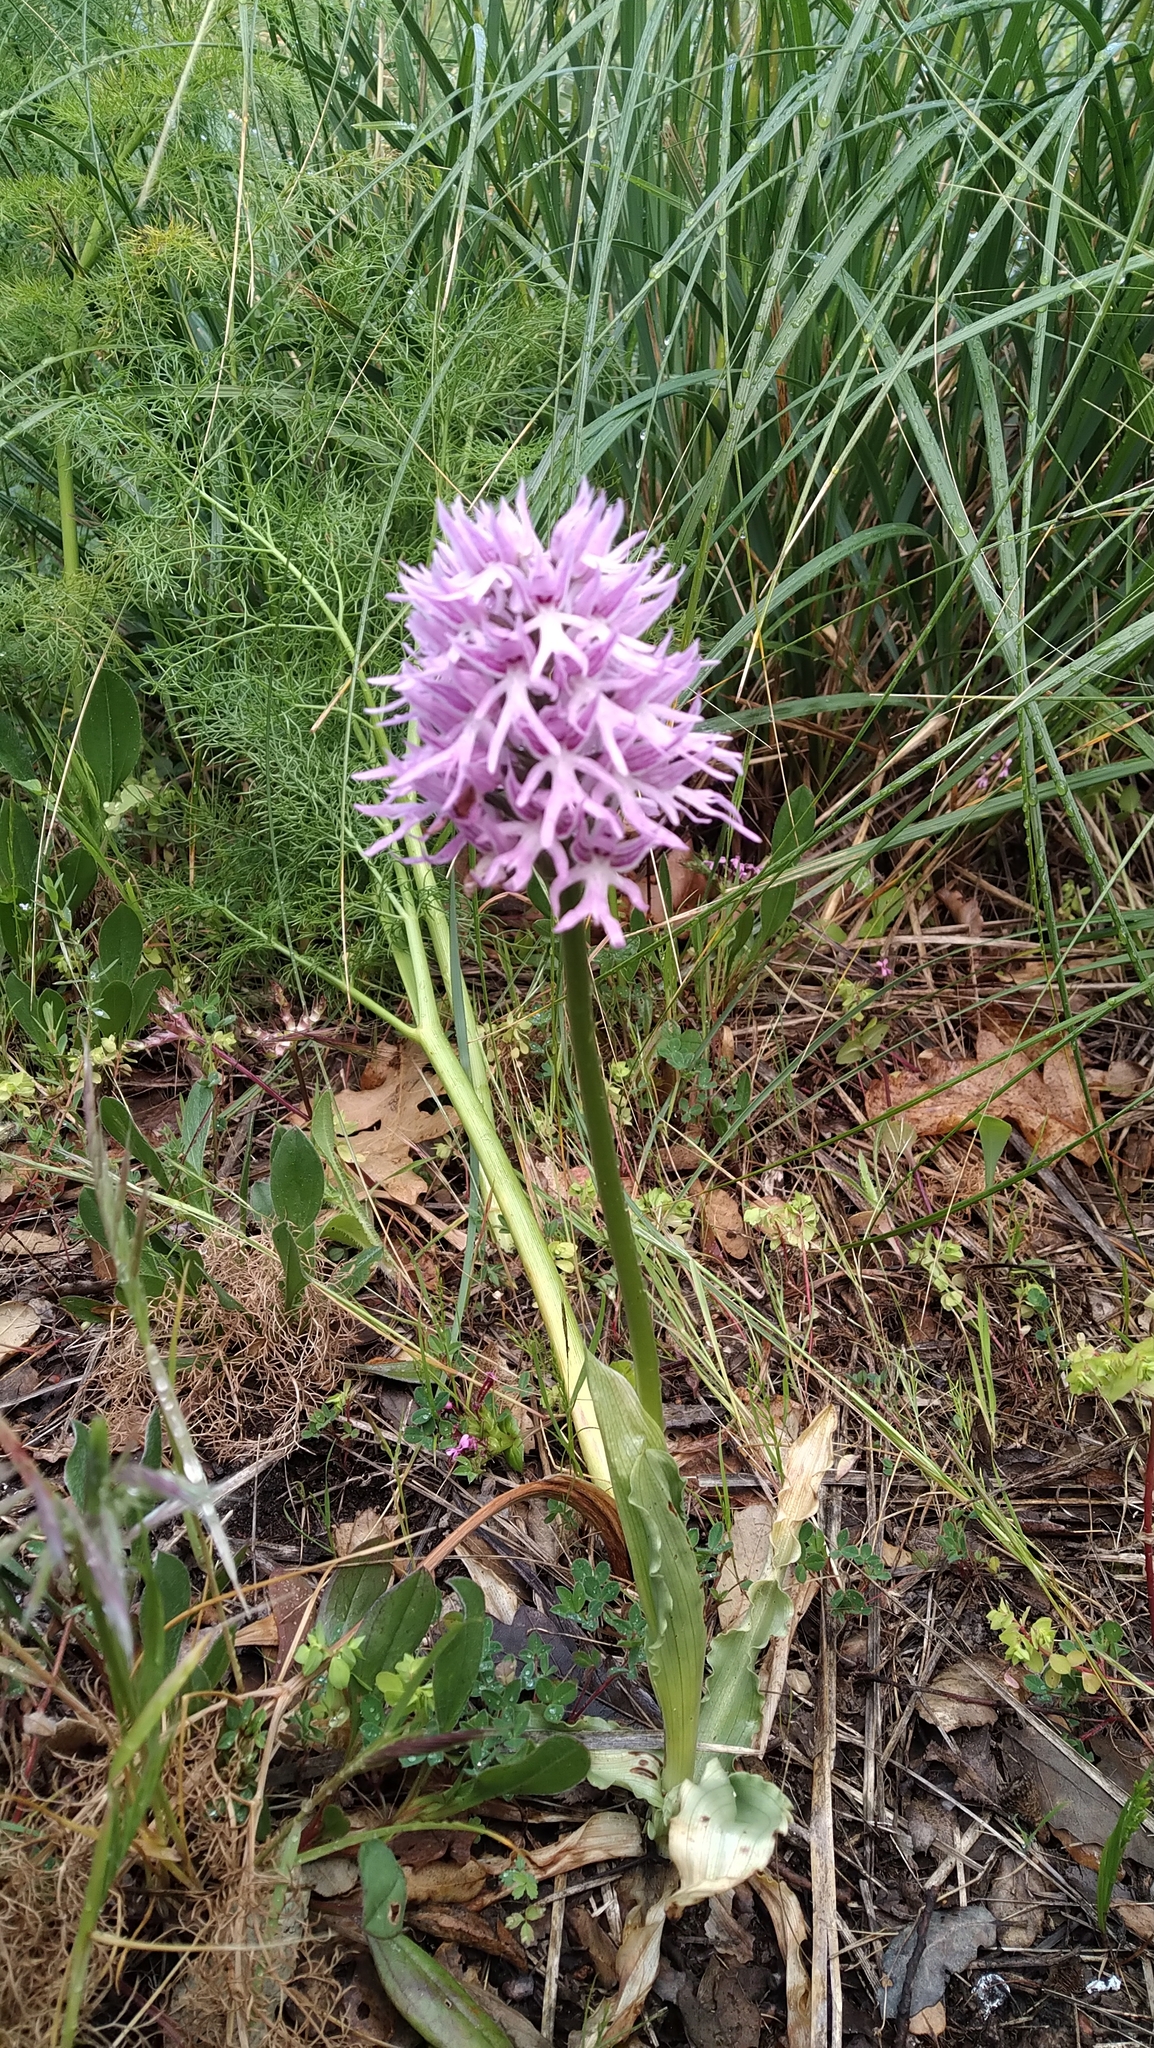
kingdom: Plantae
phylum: Tracheophyta
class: Liliopsida
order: Asparagales
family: Orchidaceae
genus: Orchis
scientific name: Orchis italica
